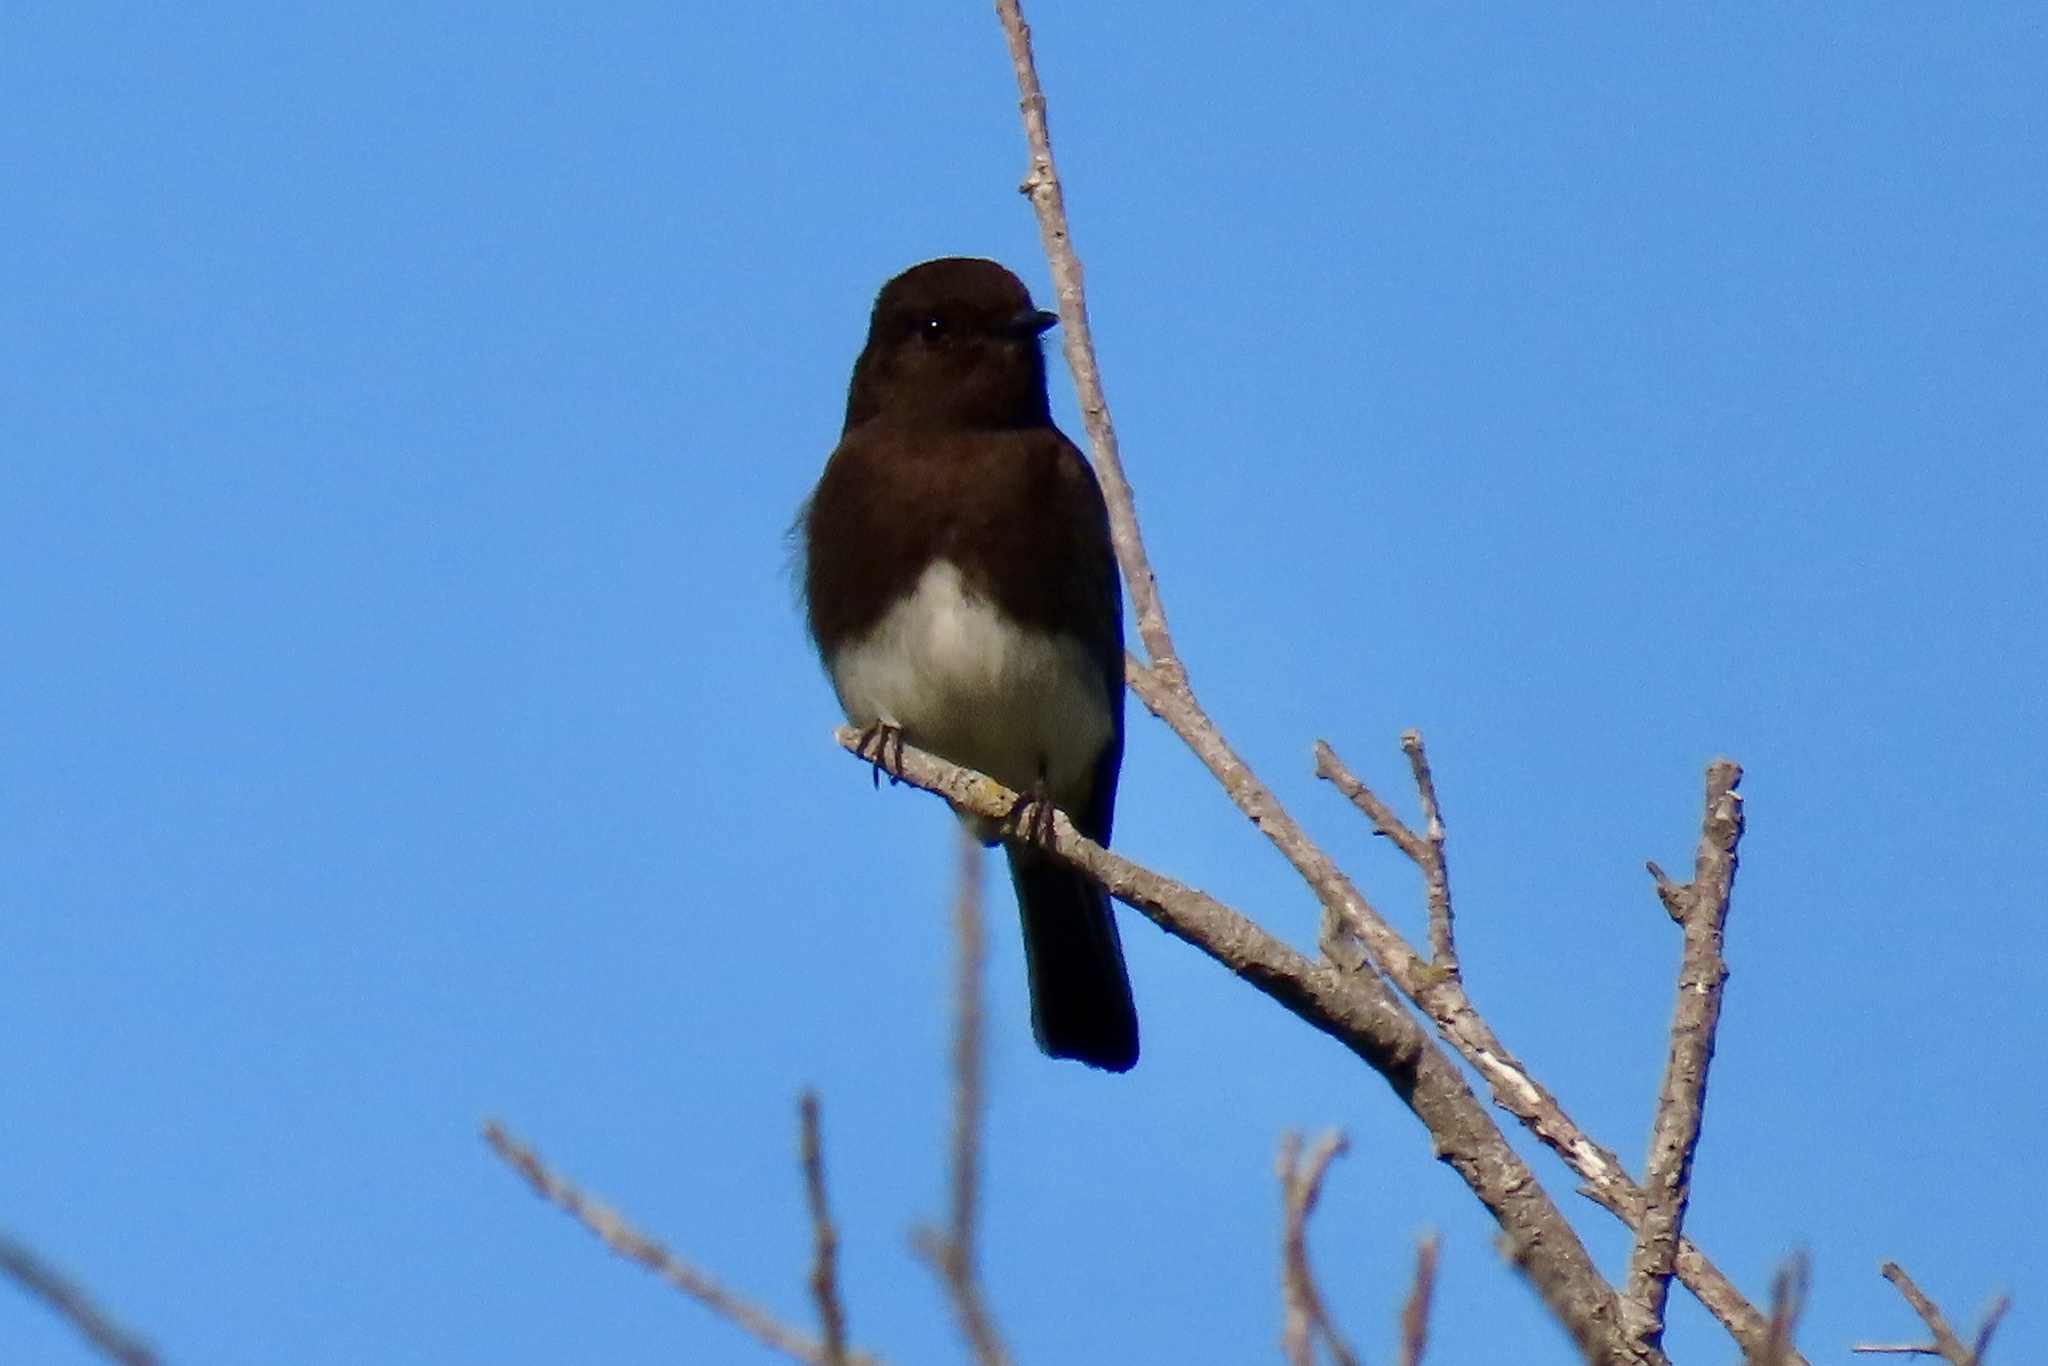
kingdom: Animalia
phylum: Chordata
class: Aves
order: Passeriformes
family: Tyrannidae
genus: Sayornis
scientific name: Sayornis nigricans
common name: Black phoebe
